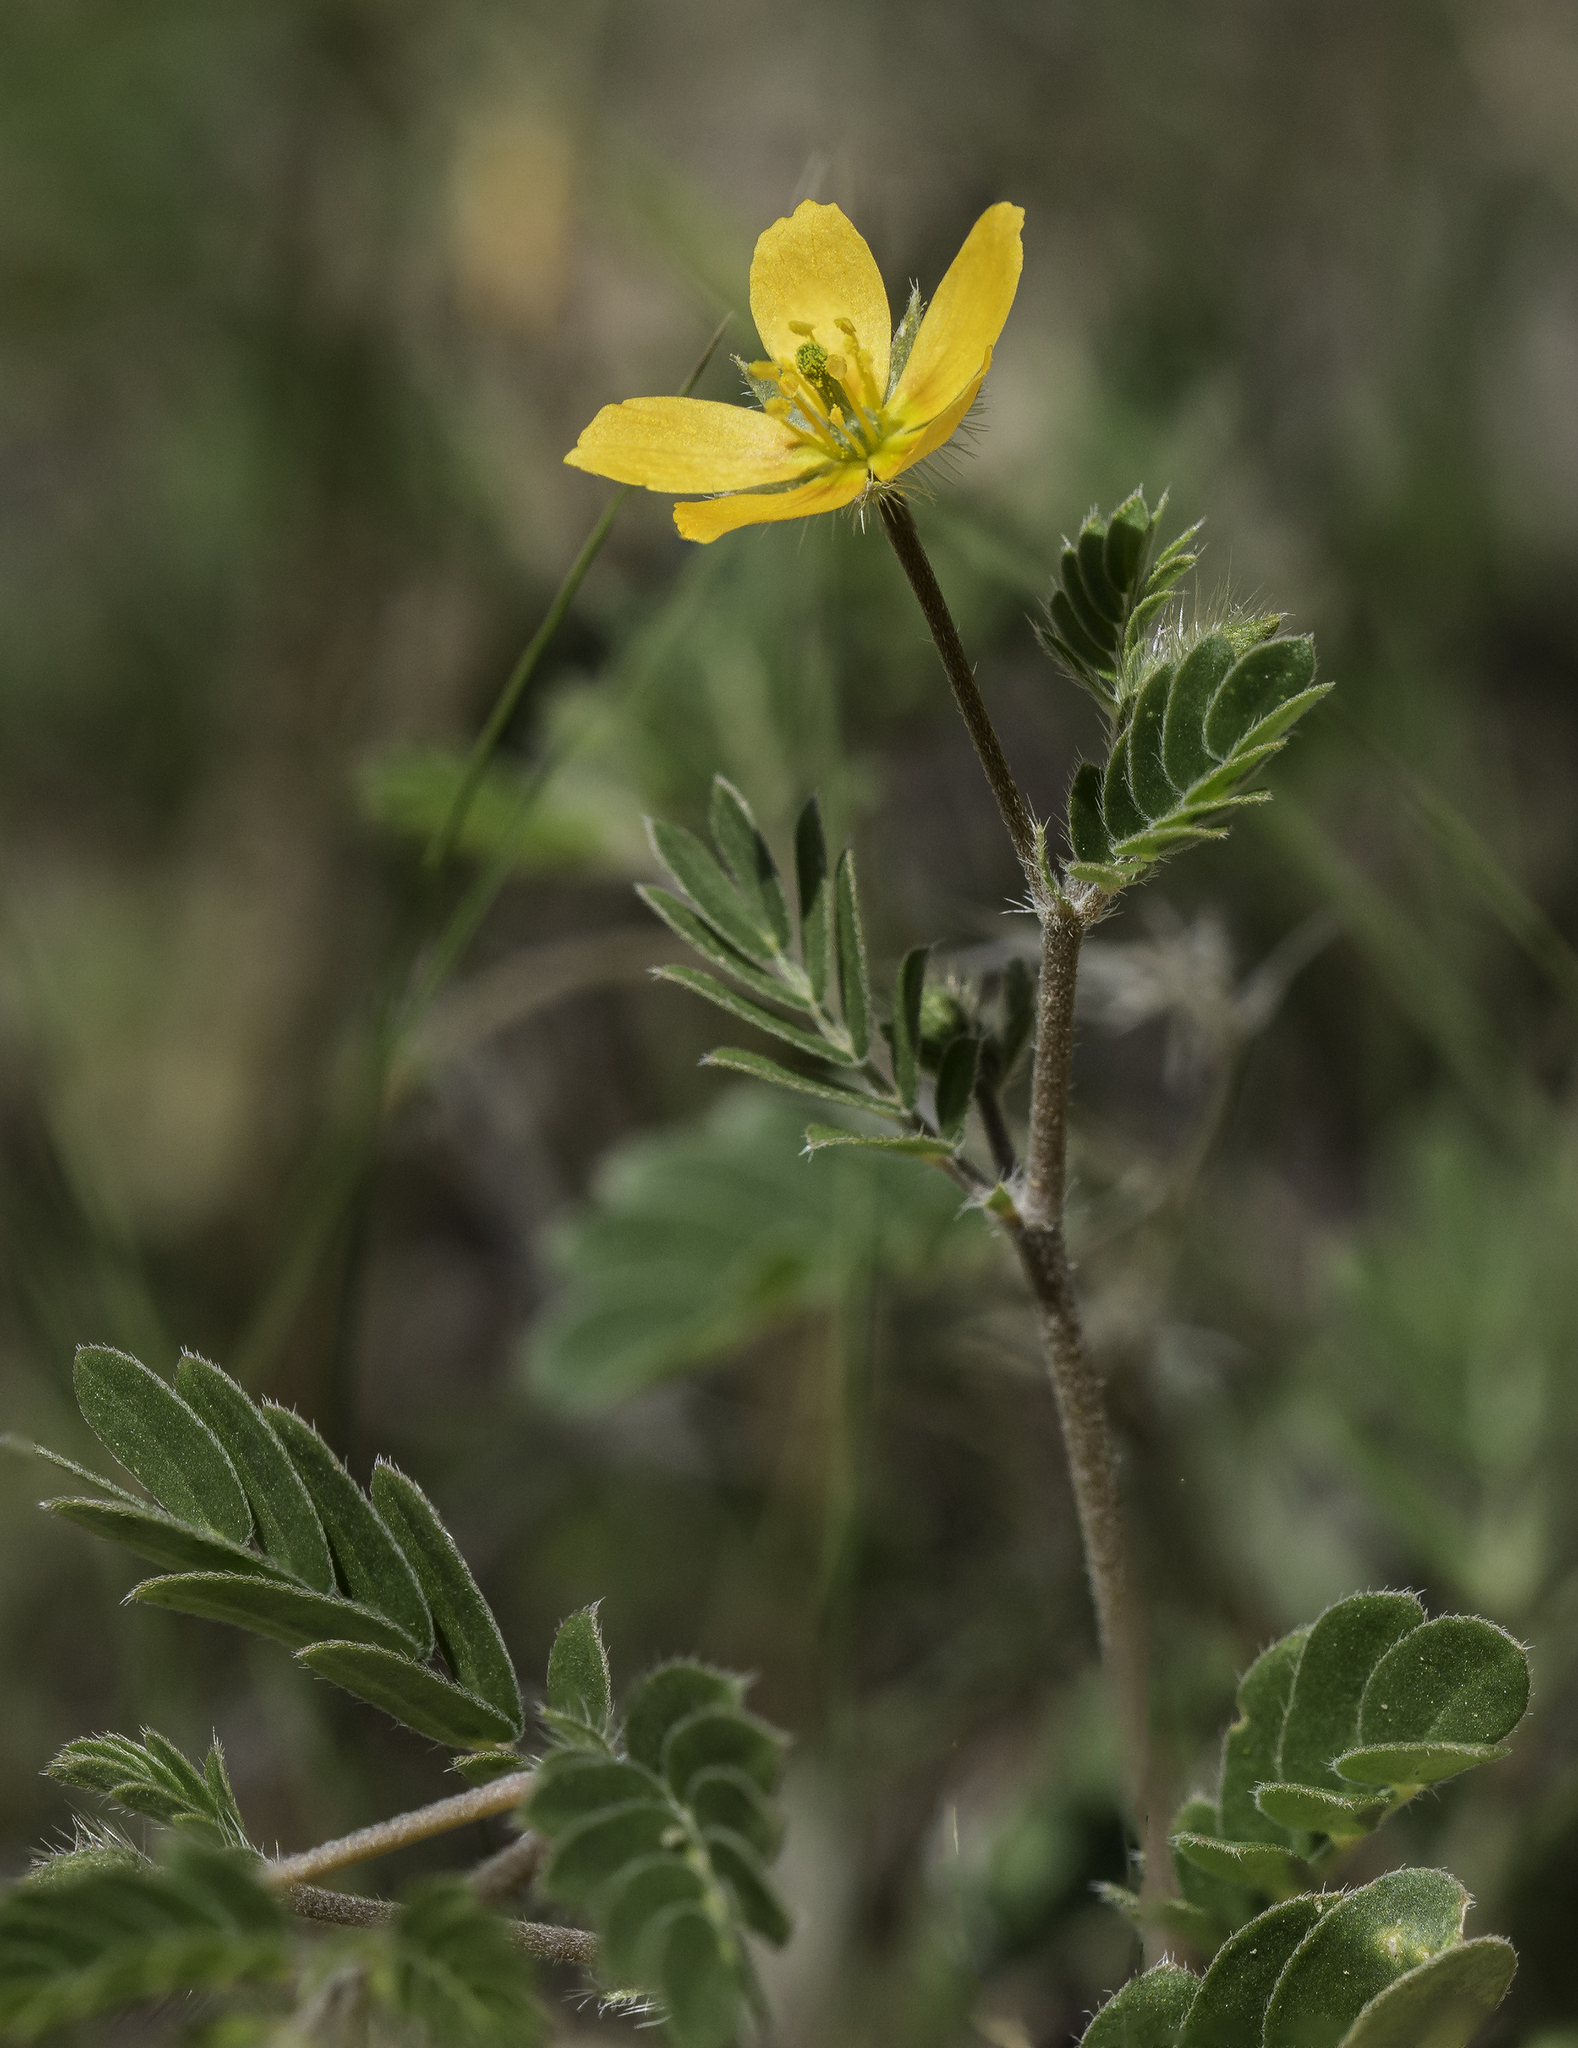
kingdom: Plantae
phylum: Tracheophyta
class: Magnoliopsida
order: Zygophyllales
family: Zygophyllaceae
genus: Kallstroemia
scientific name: Kallstroemia parviflora
